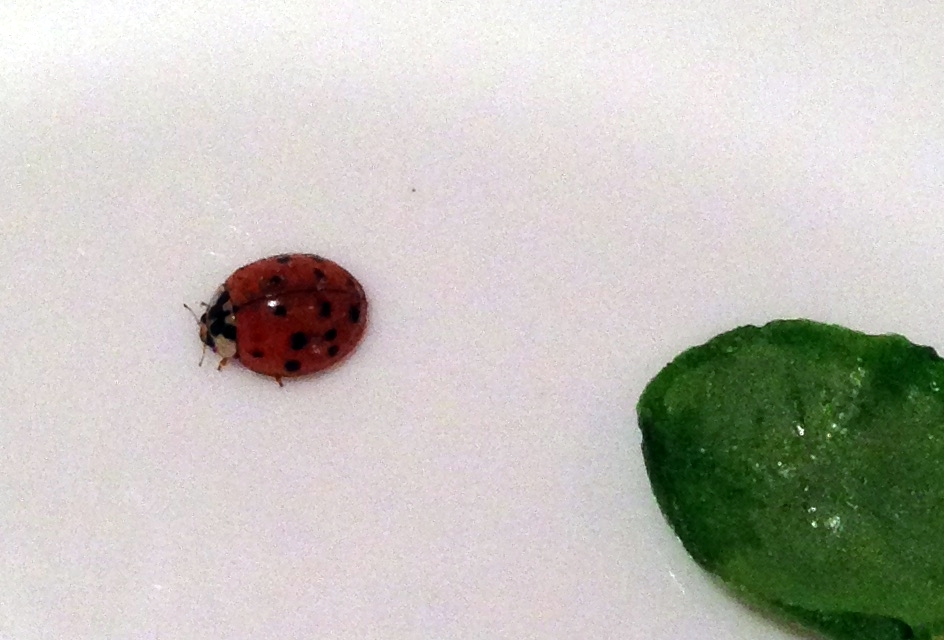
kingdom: Animalia
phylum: Arthropoda
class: Insecta
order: Coleoptera
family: Coccinellidae
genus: Harmonia
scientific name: Harmonia axyridis
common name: Harlequin ladybird
